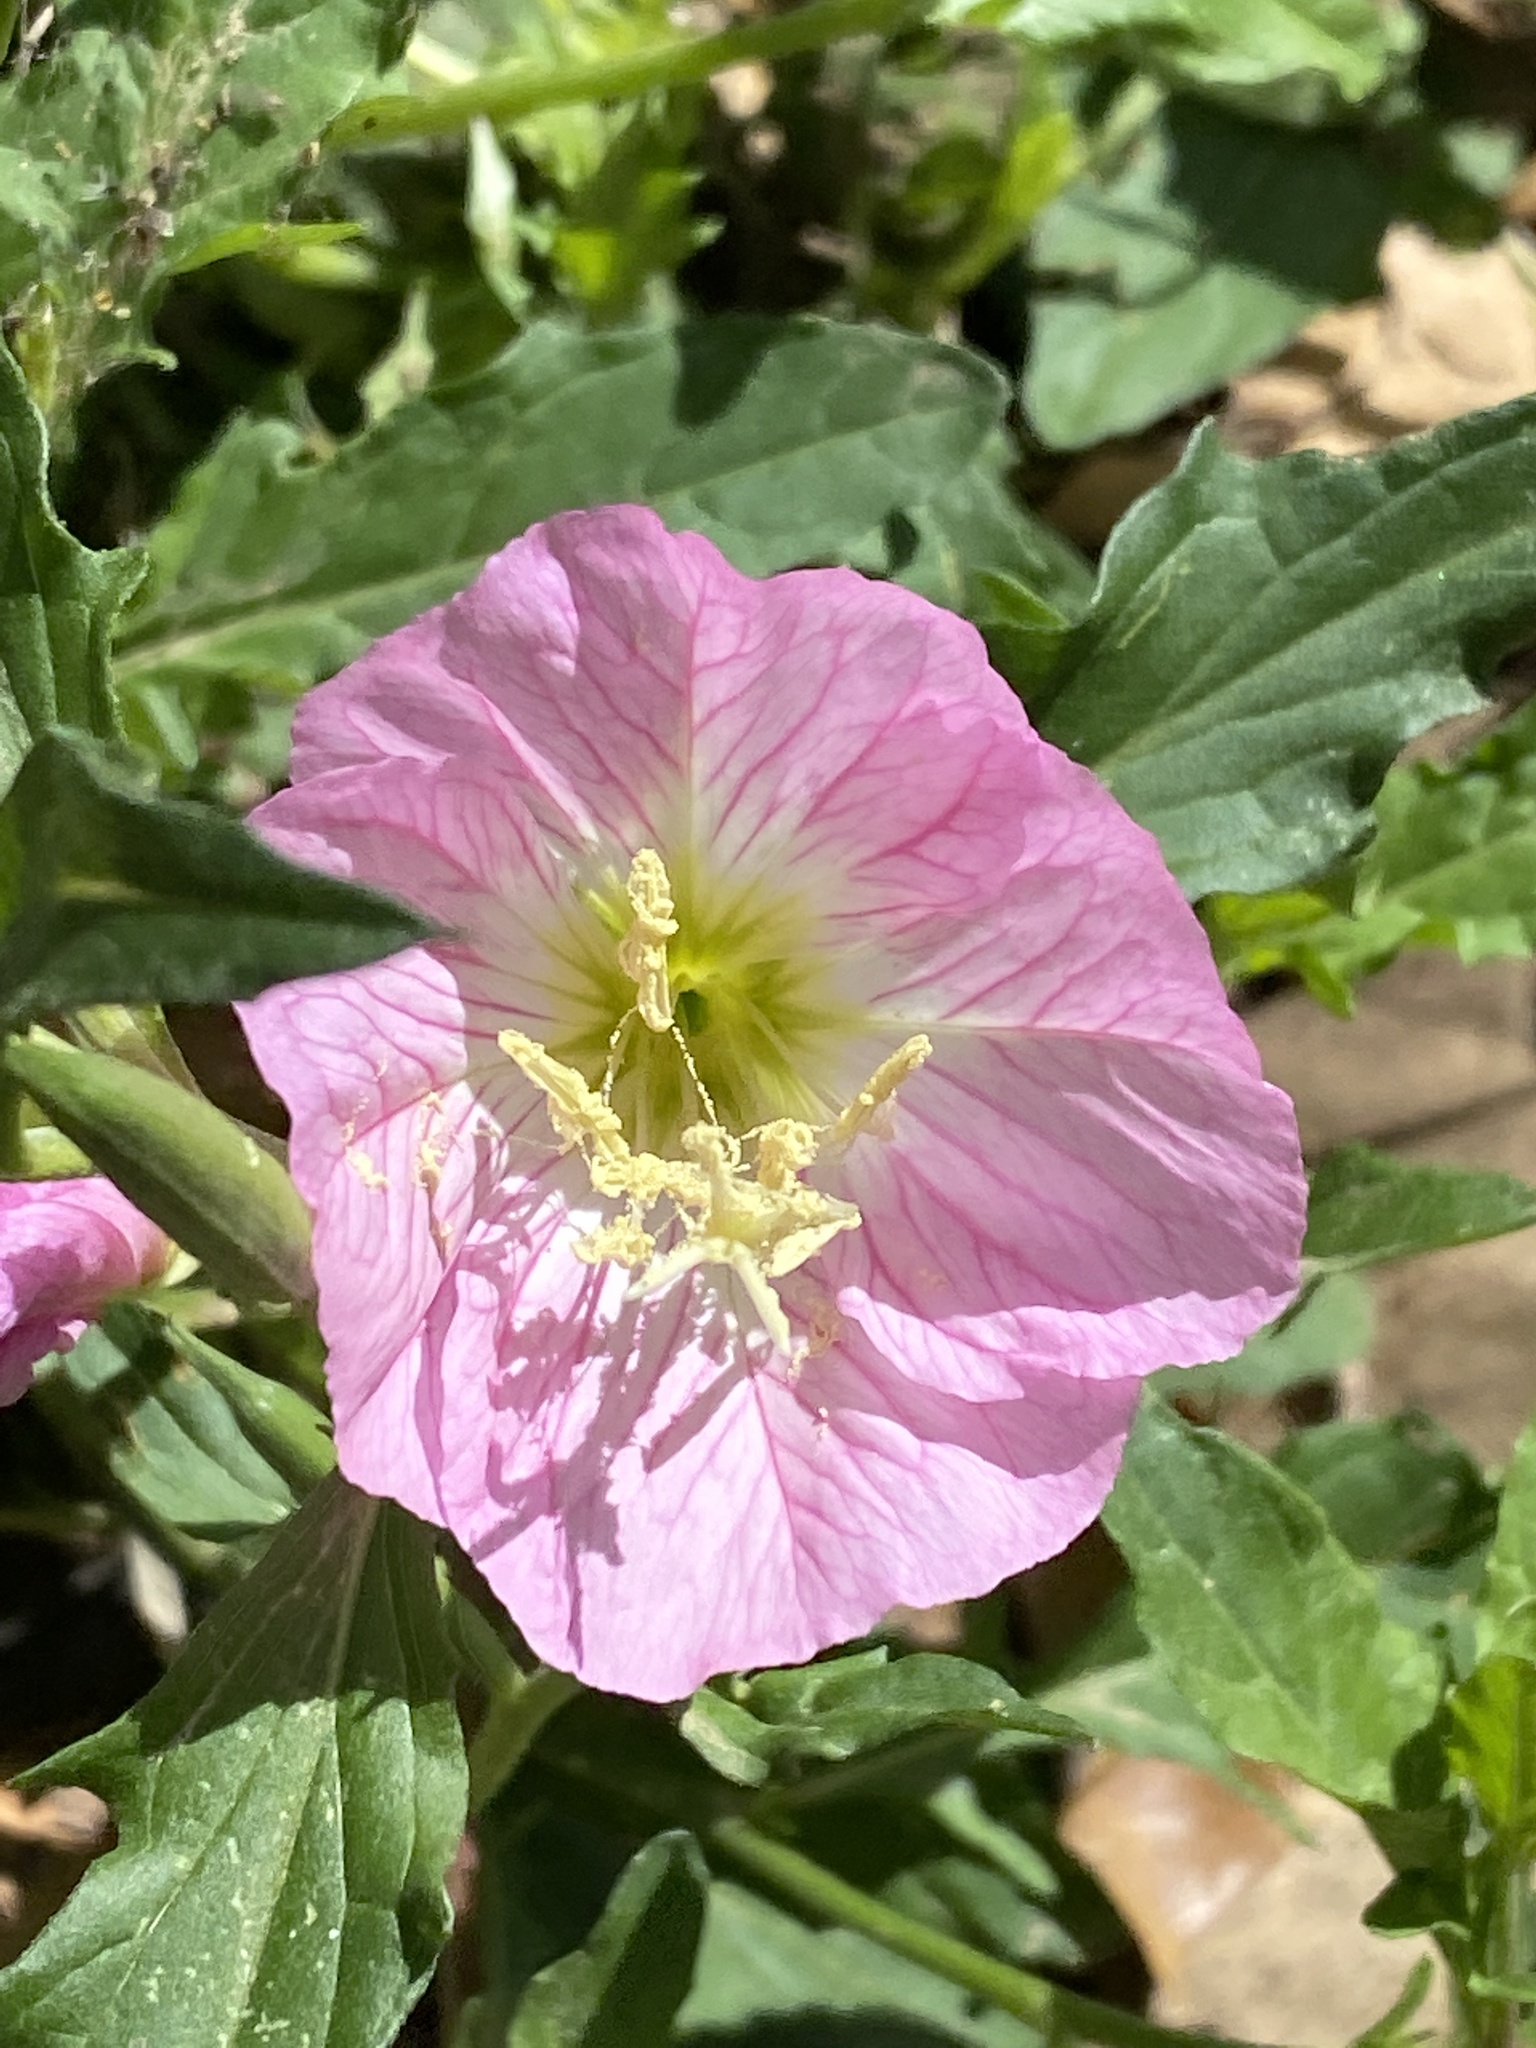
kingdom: Plantae
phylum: Tracheophyta
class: Magnoliopsida
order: Myrtales
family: Onagraceae
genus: Oenothera
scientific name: Oenothera speciosa
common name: White evening-primrose
